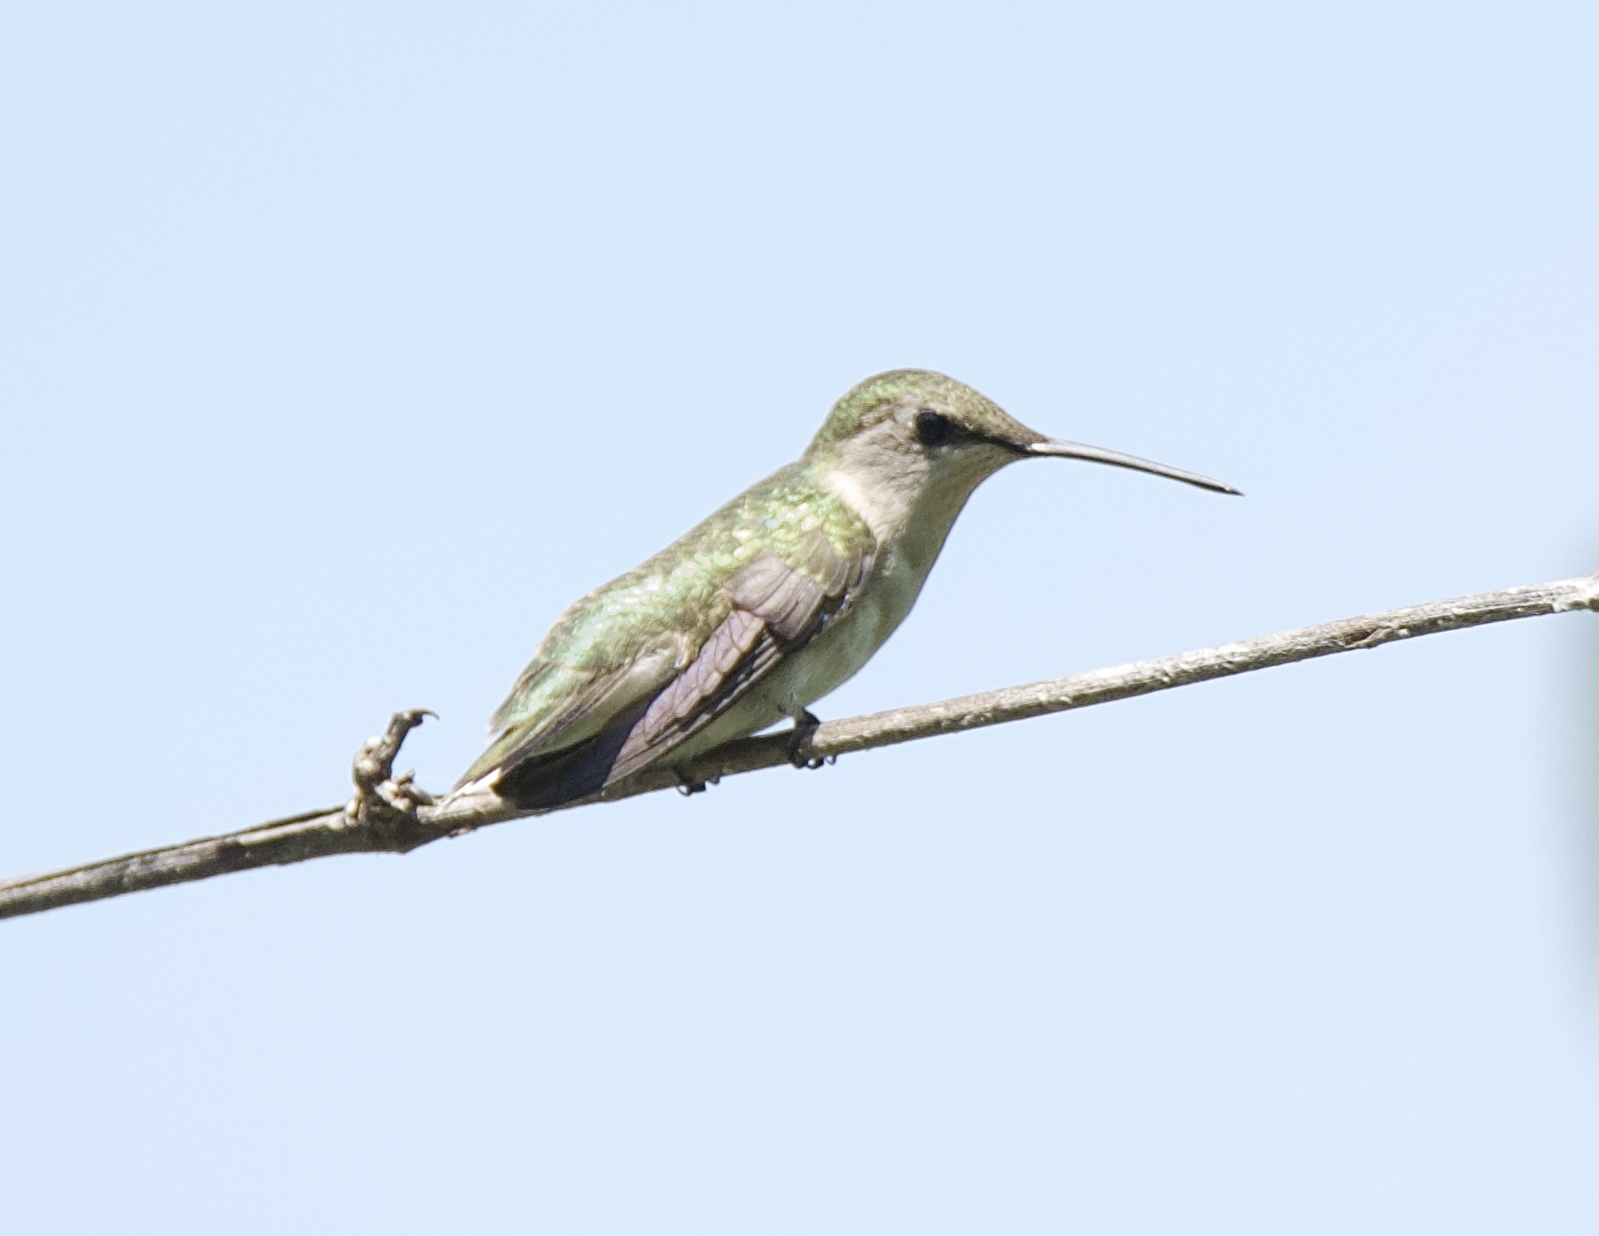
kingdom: Animalia
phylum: Chordata
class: Aves
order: Apodiformes
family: Trochilidae
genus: Archilochus
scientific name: Archilochus colubris
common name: Ruby-throated hummingbird
